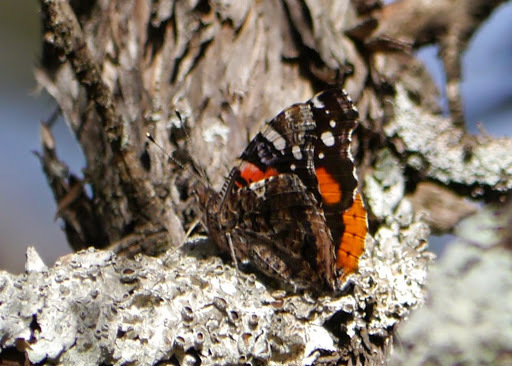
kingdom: Animalia
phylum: Arthropoda
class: Insecta
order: Lepidoptera
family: Nymphalidae
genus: Vanessa
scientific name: Vanessa atalanta
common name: Red admiral
